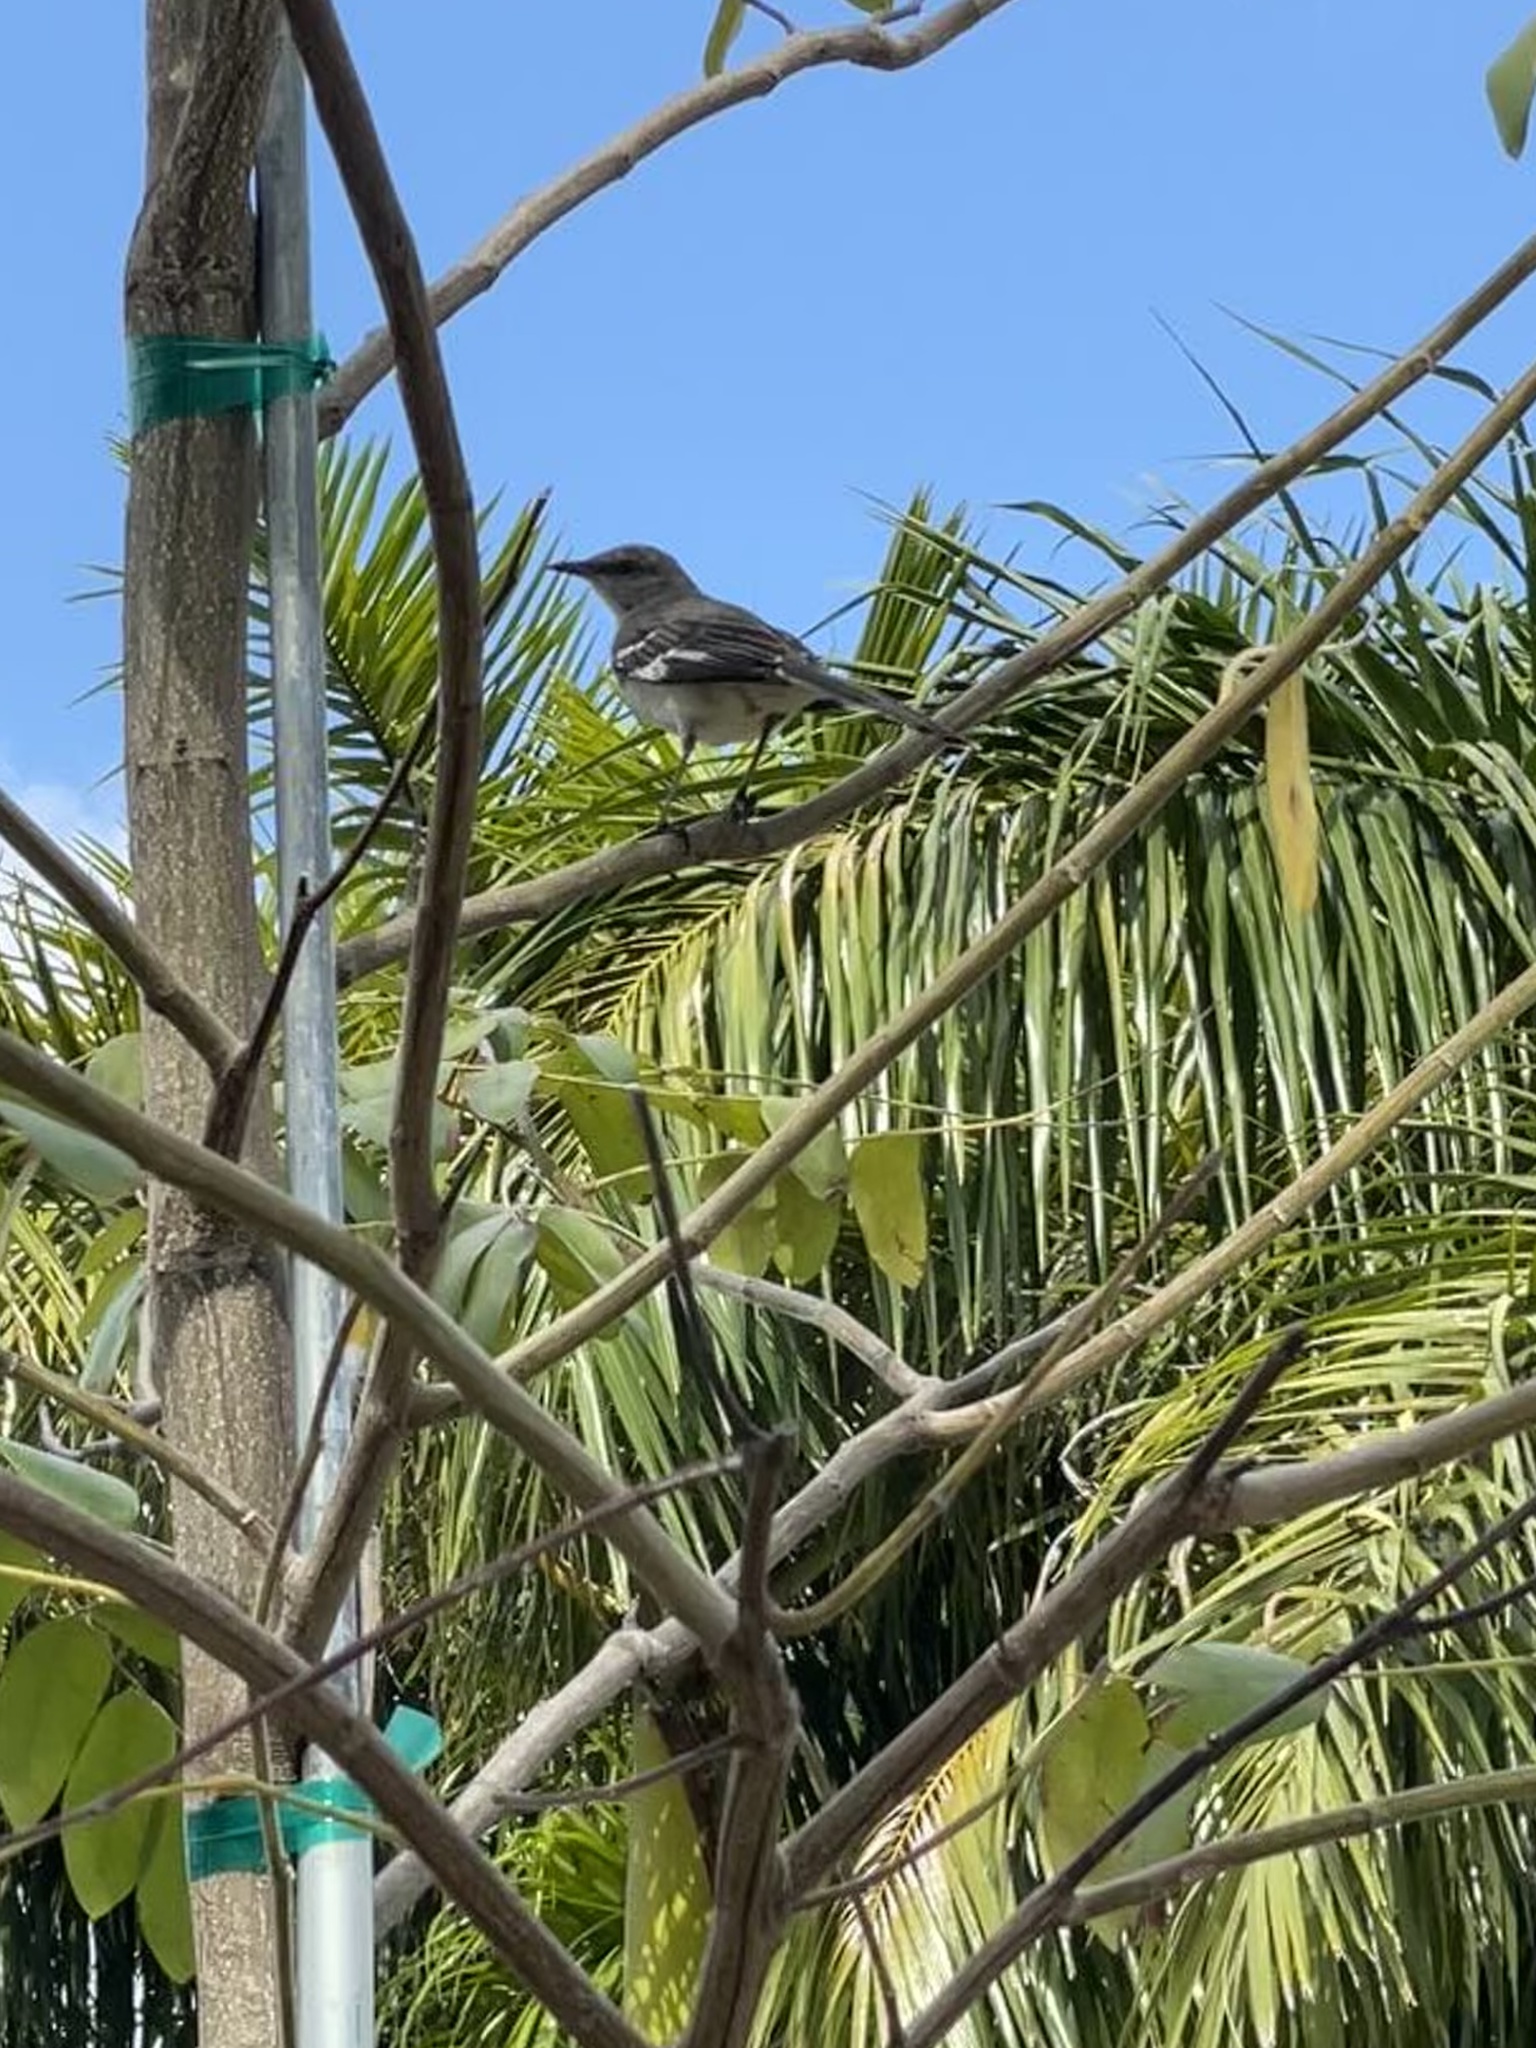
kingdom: Animalia
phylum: Chordata
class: Aves
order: Passeriformes
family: Mimidae
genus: Mimus
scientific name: Mimus polyglottos
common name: Northern mockingbird
